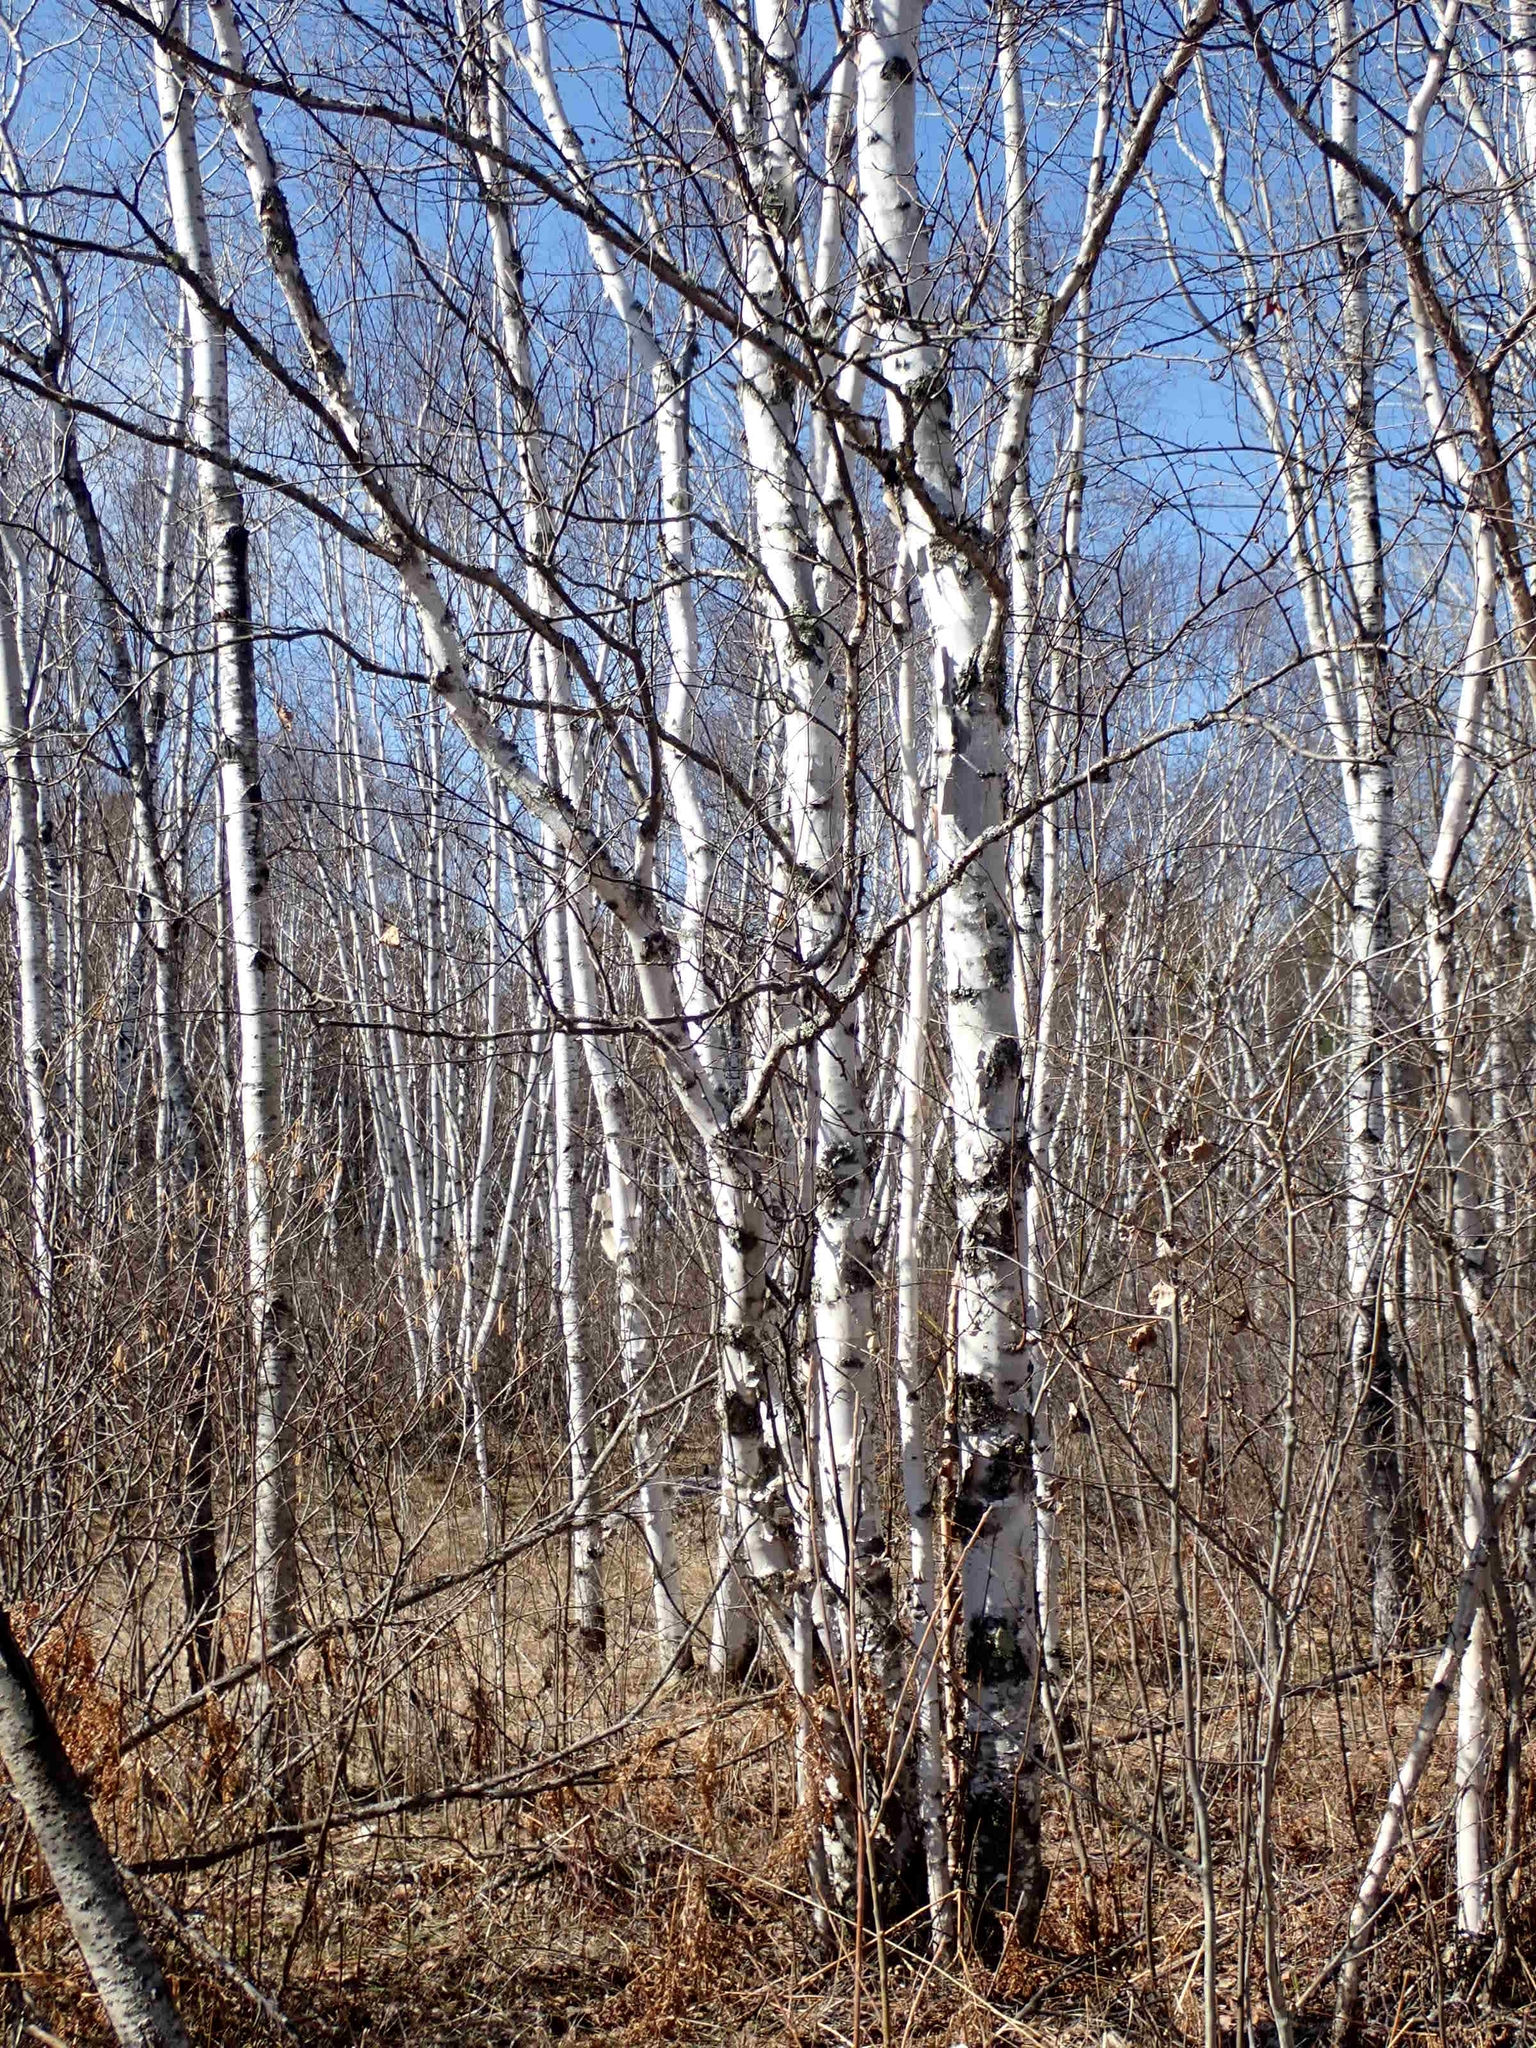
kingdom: Plantae
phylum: Tracheophyta
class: Magnoliopsida
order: Malpighiales
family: Salicaceae
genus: Populus
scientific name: Populus tremuloides
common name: Quaking aspen
